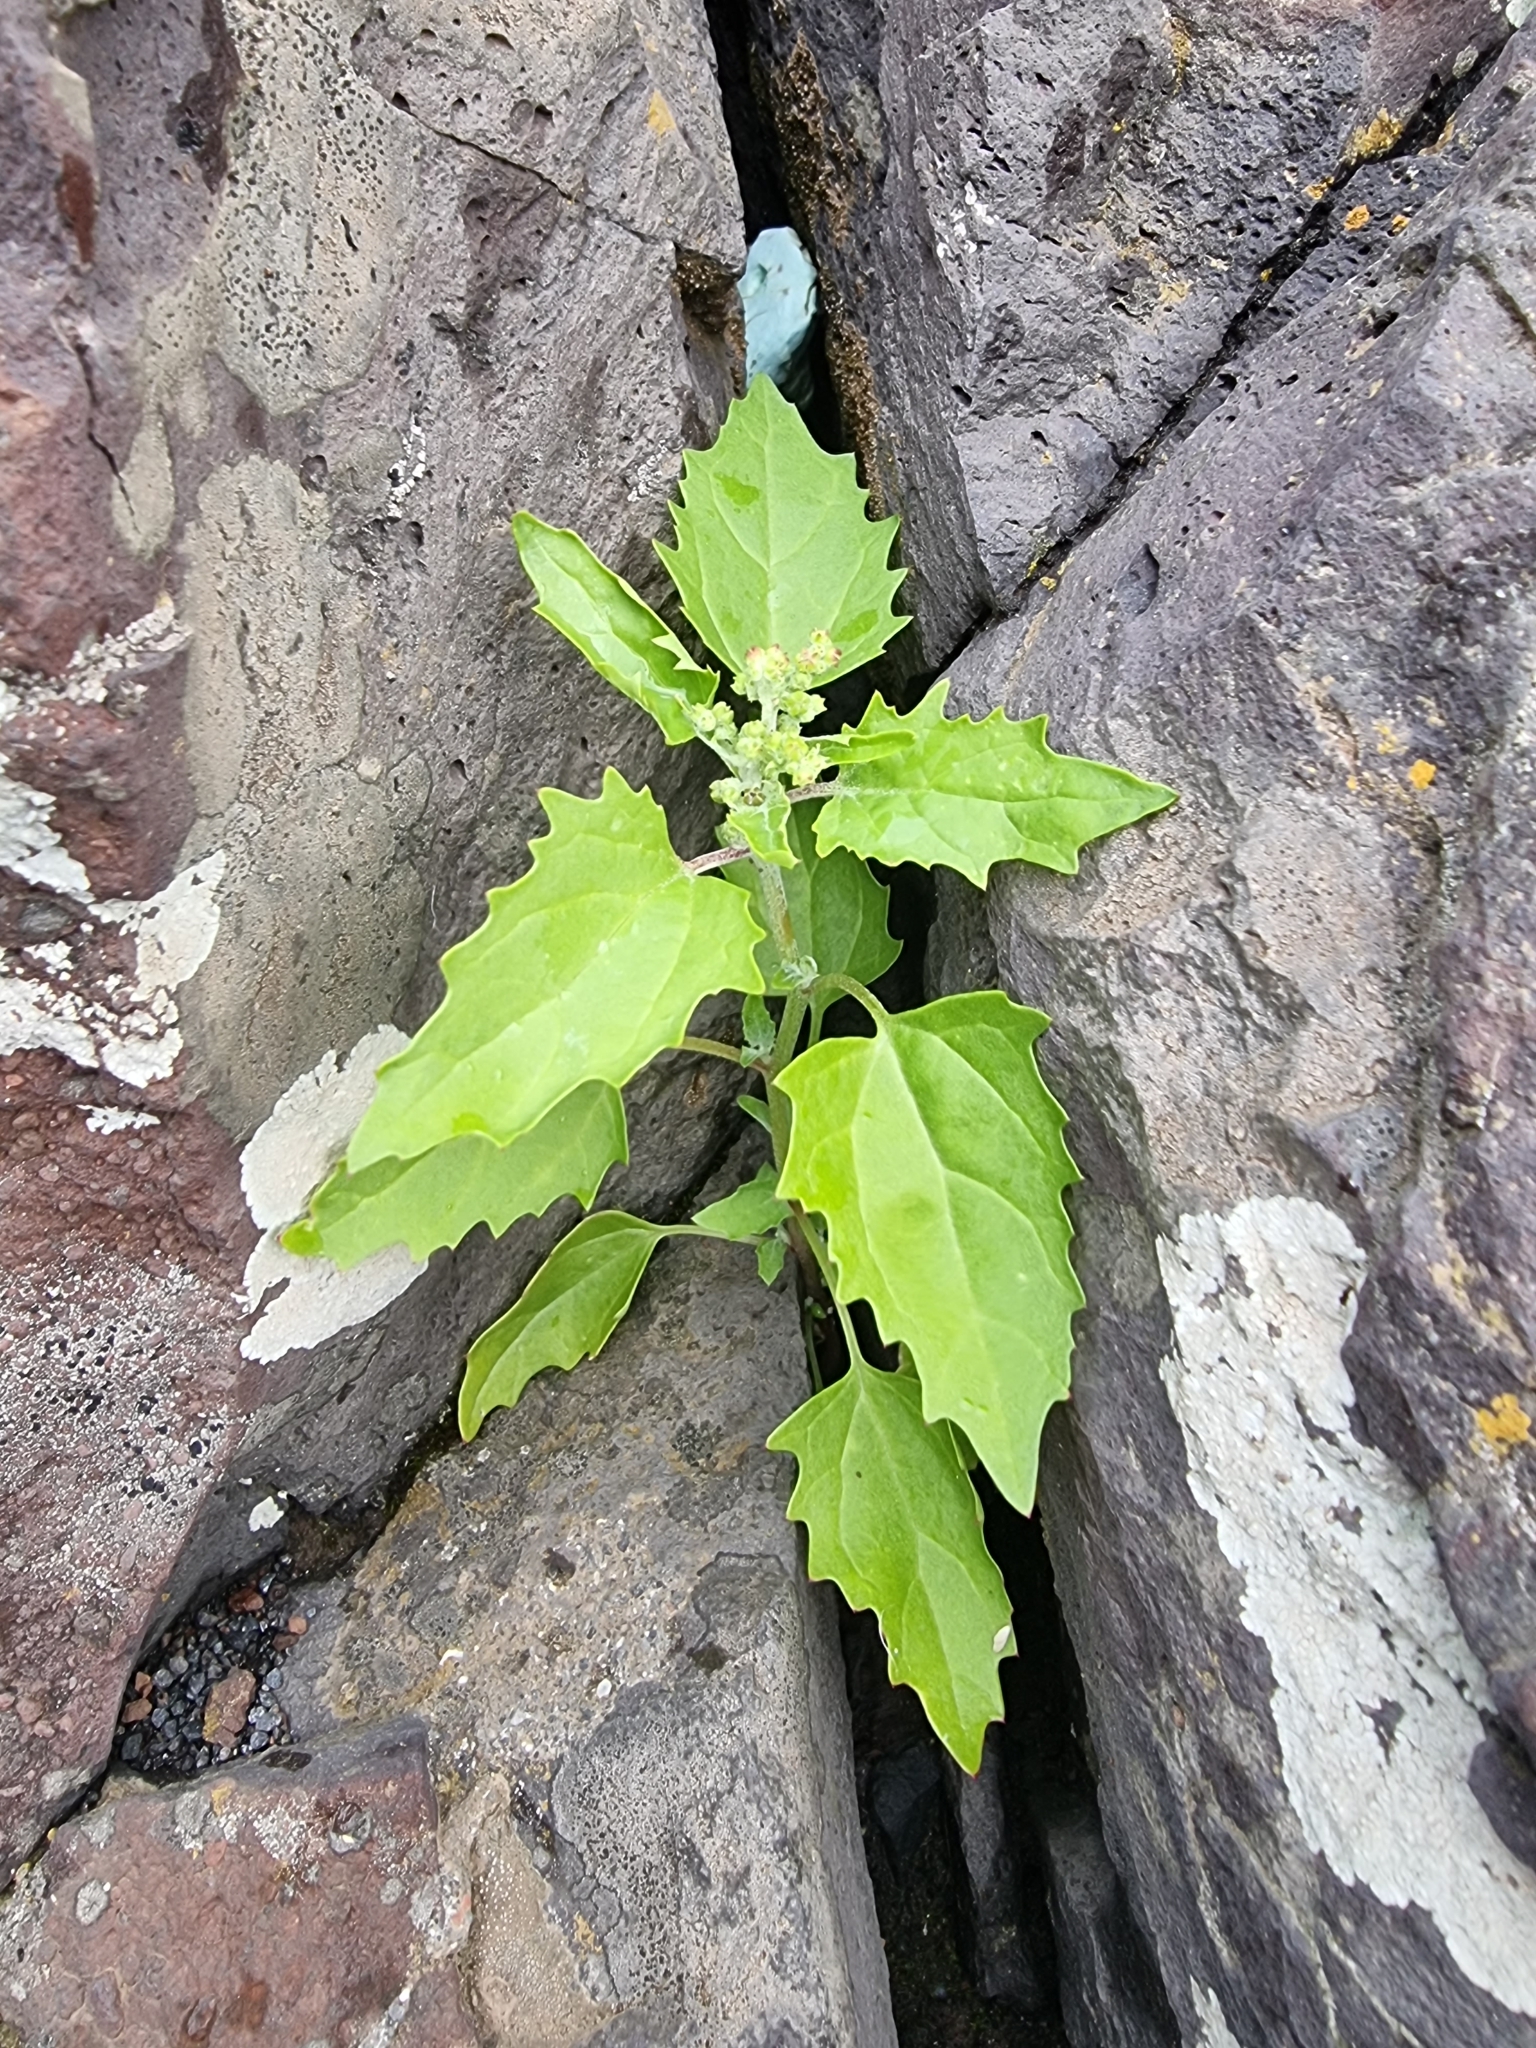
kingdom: Plantae
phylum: Tracheophyta
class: Magnoliopsida
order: Caryophyllales
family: Amaranthaceae
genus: Chenopodiastrum
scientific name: Chenopodiastrum murale
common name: Sowbane
